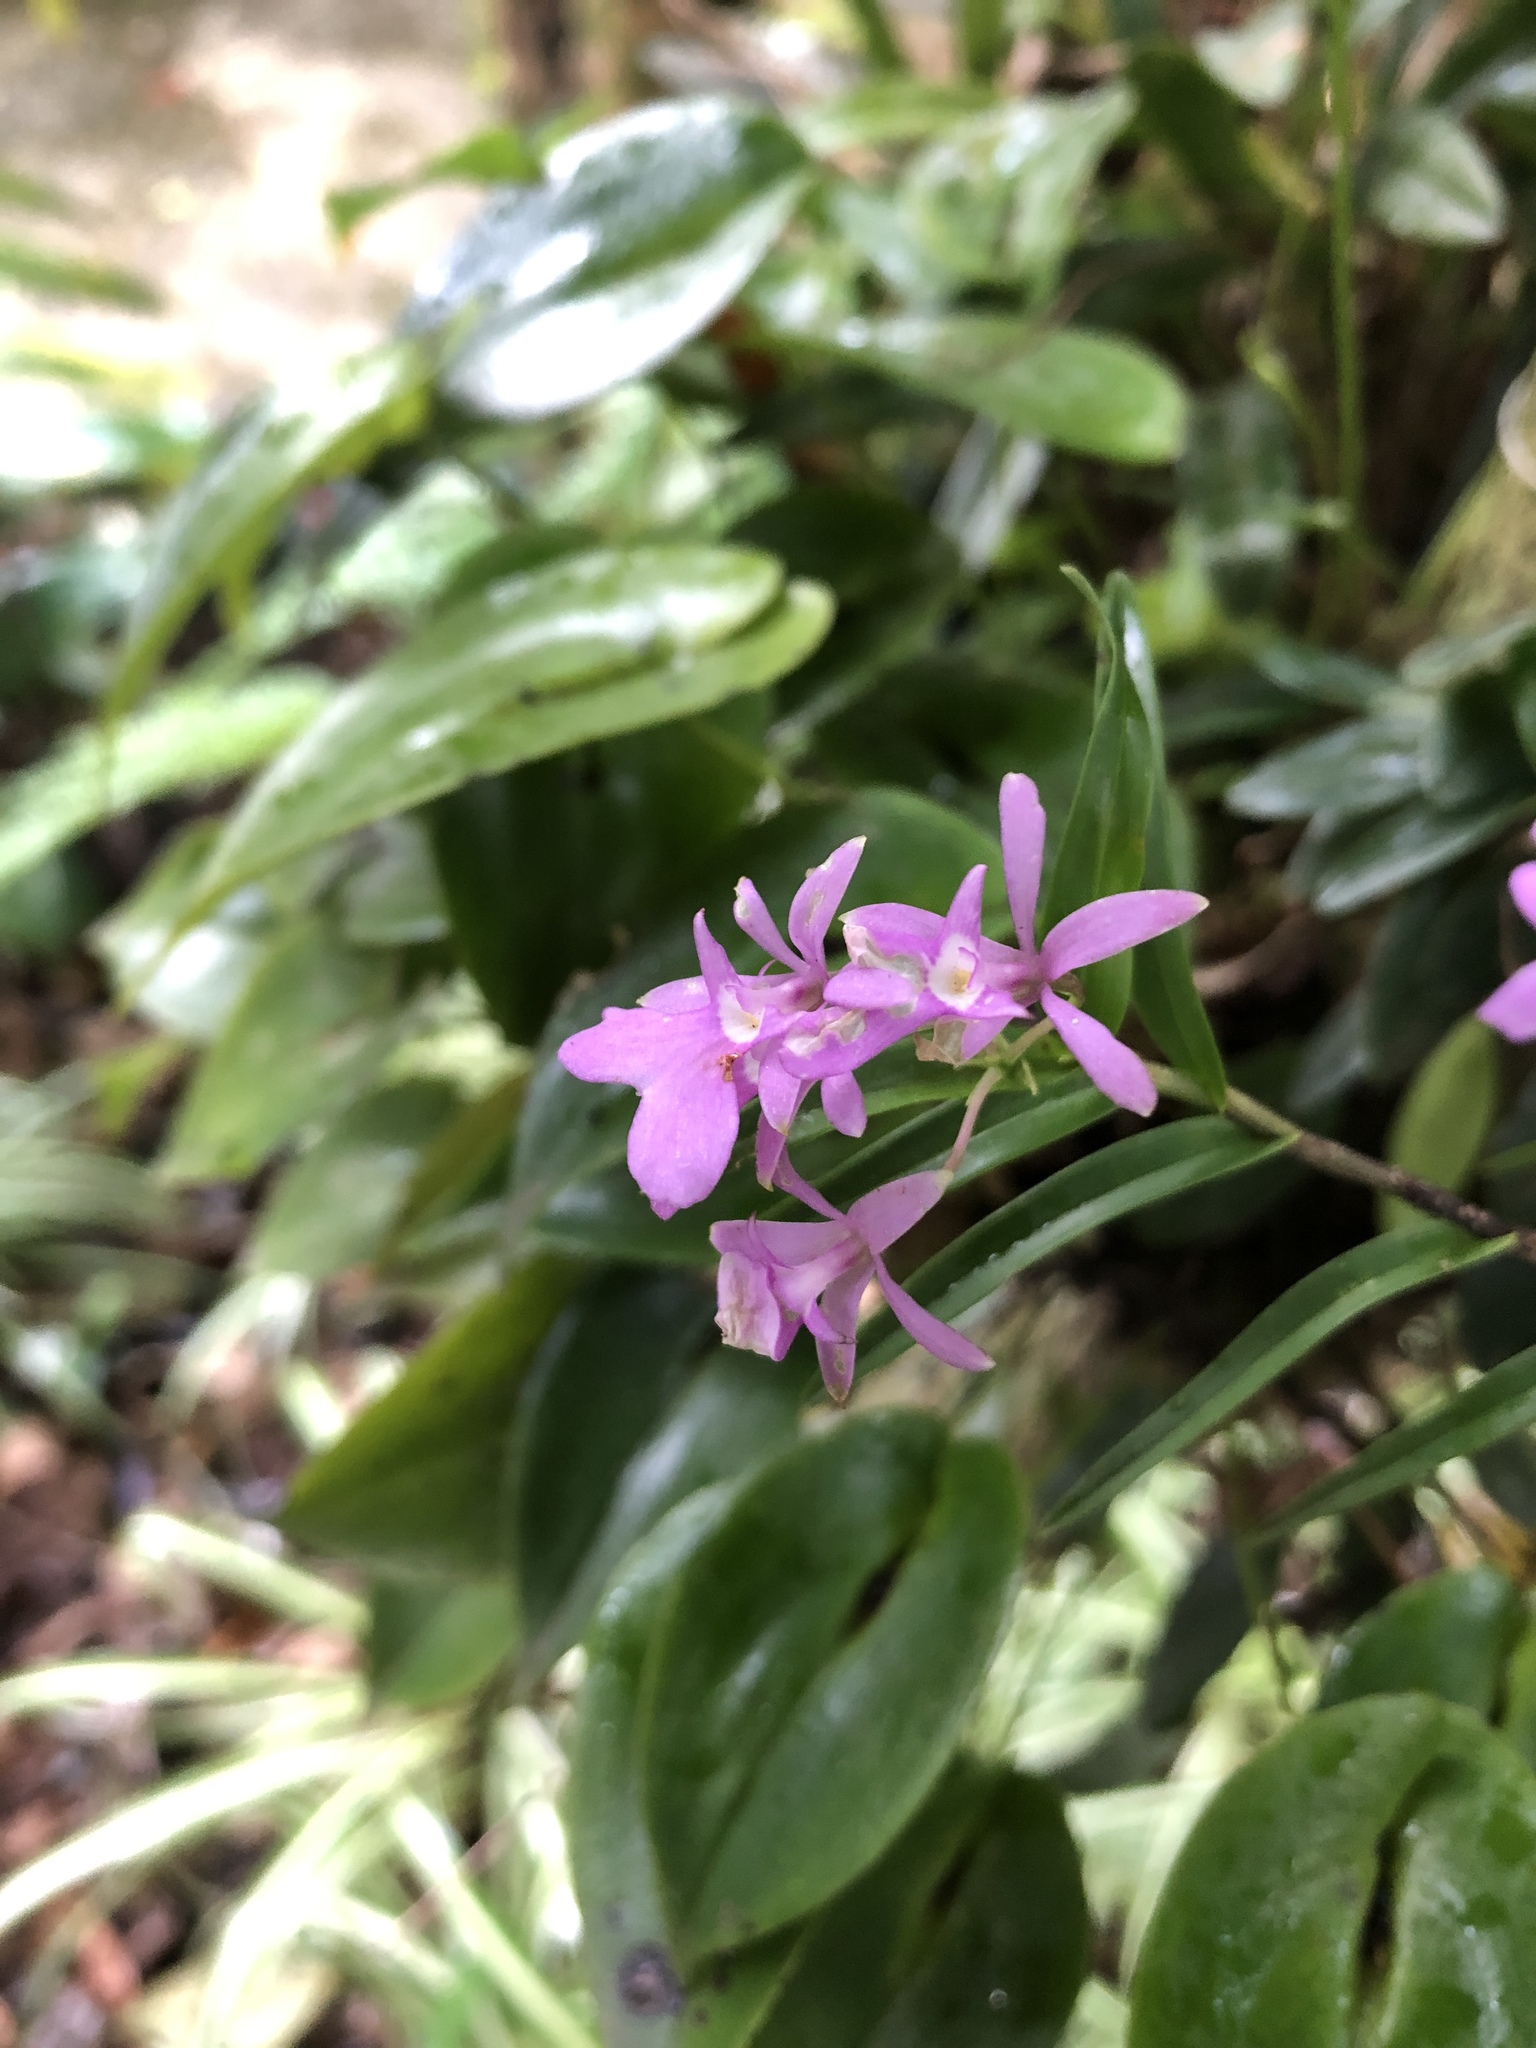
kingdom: Plantae
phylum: Tracheophyta
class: Liliopsida
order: Asparagales
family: Orchidaceae
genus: Epidendrum
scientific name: Epidendrum centropetalum
